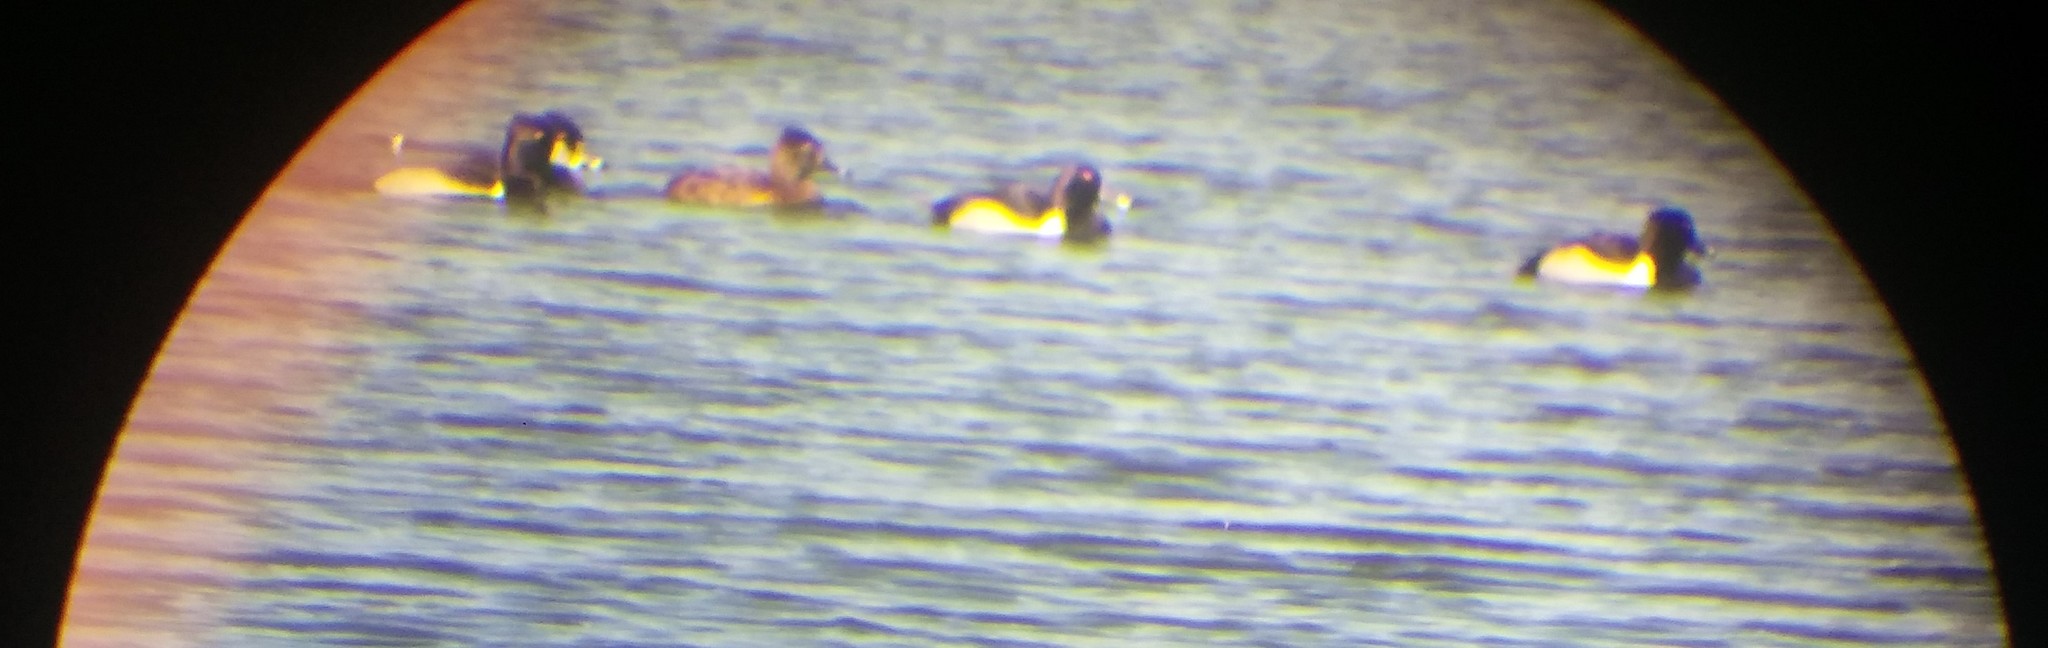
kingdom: Animalia
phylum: Chordata
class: Aves
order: Anseriformes
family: Anatidae
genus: Aythya
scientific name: Aythya collaris
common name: Ring-necked duck
